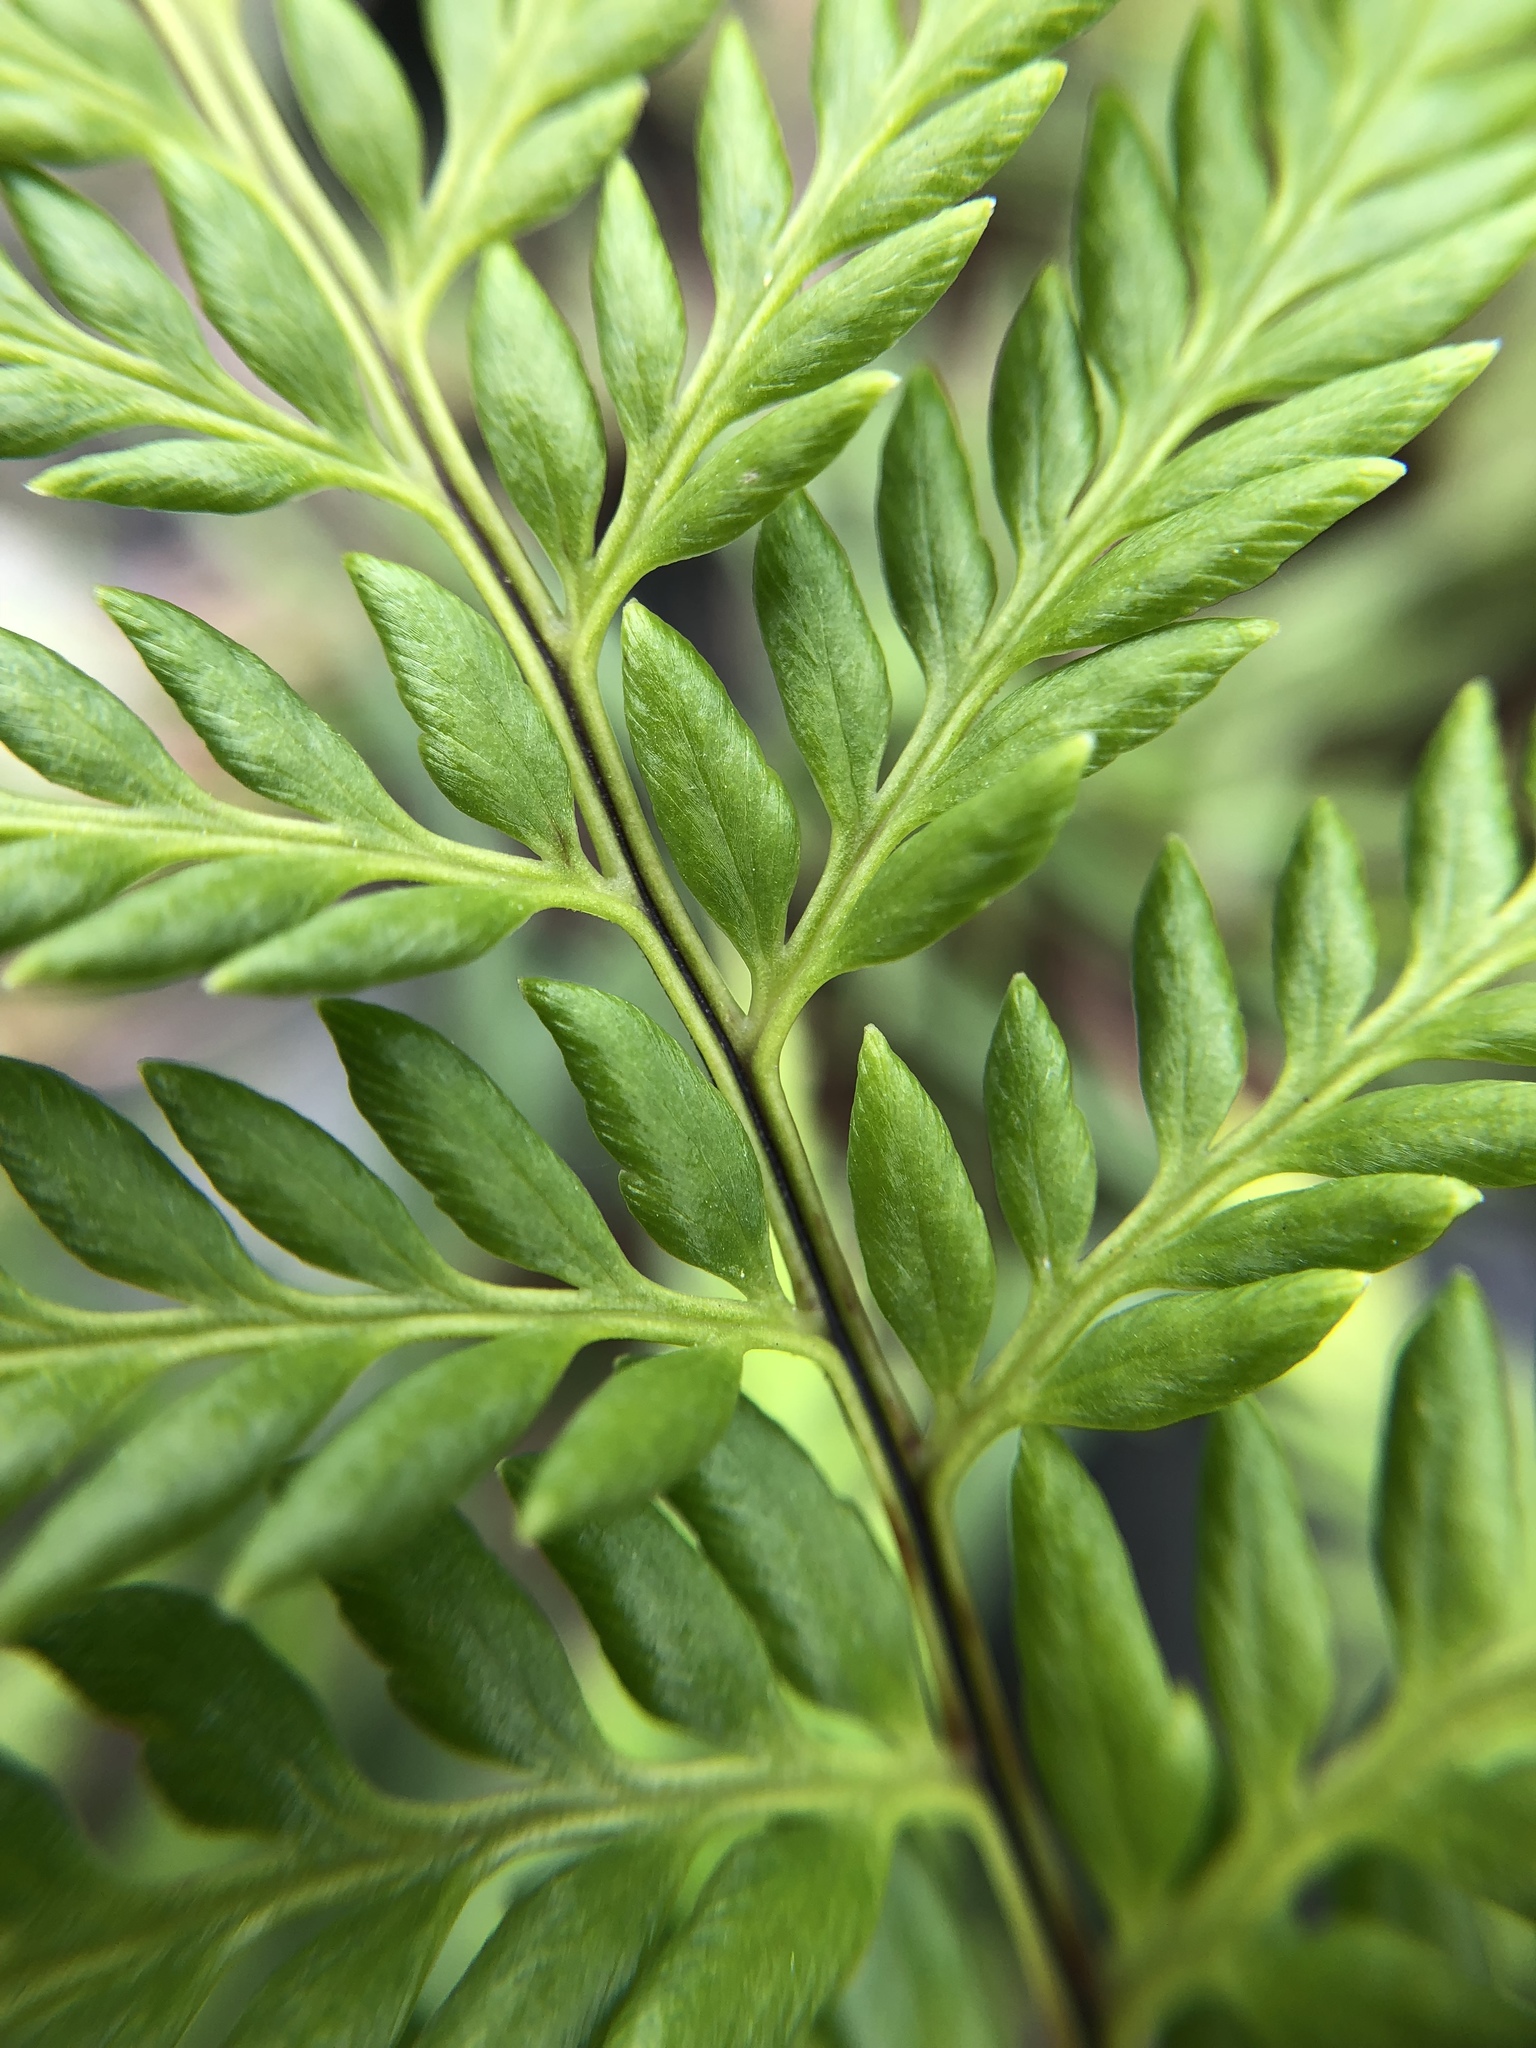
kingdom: Plantae
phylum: Tracheophyta
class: Polypodiopsida
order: Polypodiales
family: Pteridaceae
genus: Pityrogramma
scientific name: Pityrogramma calomelanos
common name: Dixie silverback fern
